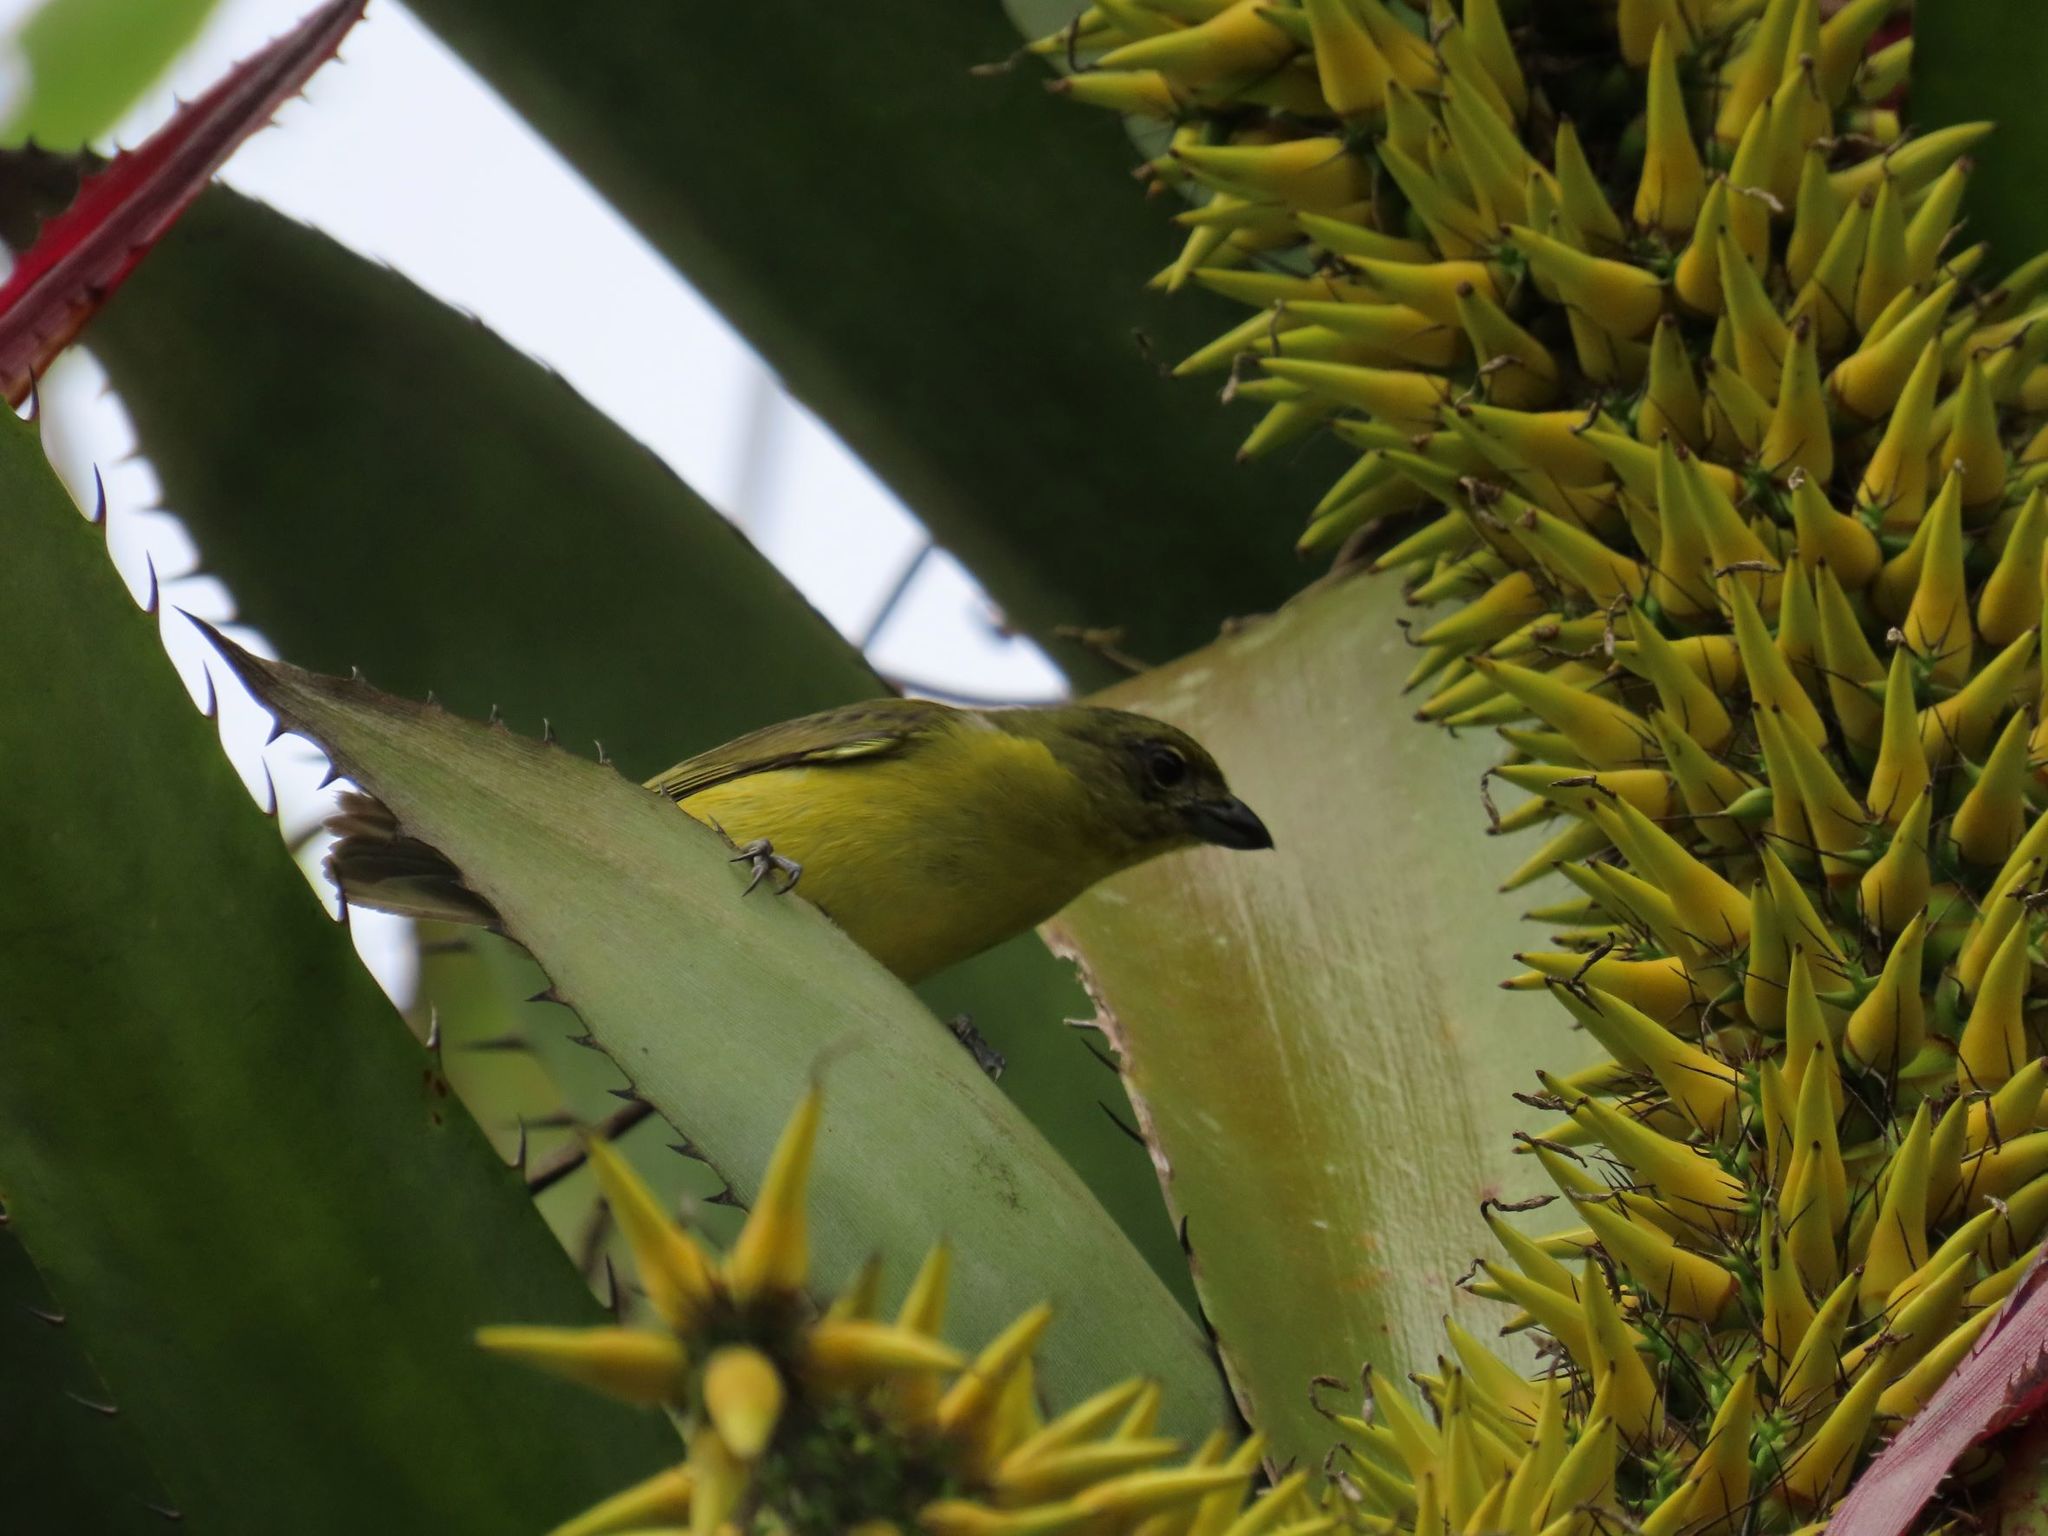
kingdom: Animalia
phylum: Chordata
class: Aves
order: Passeriformes
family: Fringillidae
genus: Euphonia
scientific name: Euphonia laniirostris
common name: Thick-billed euphonia
